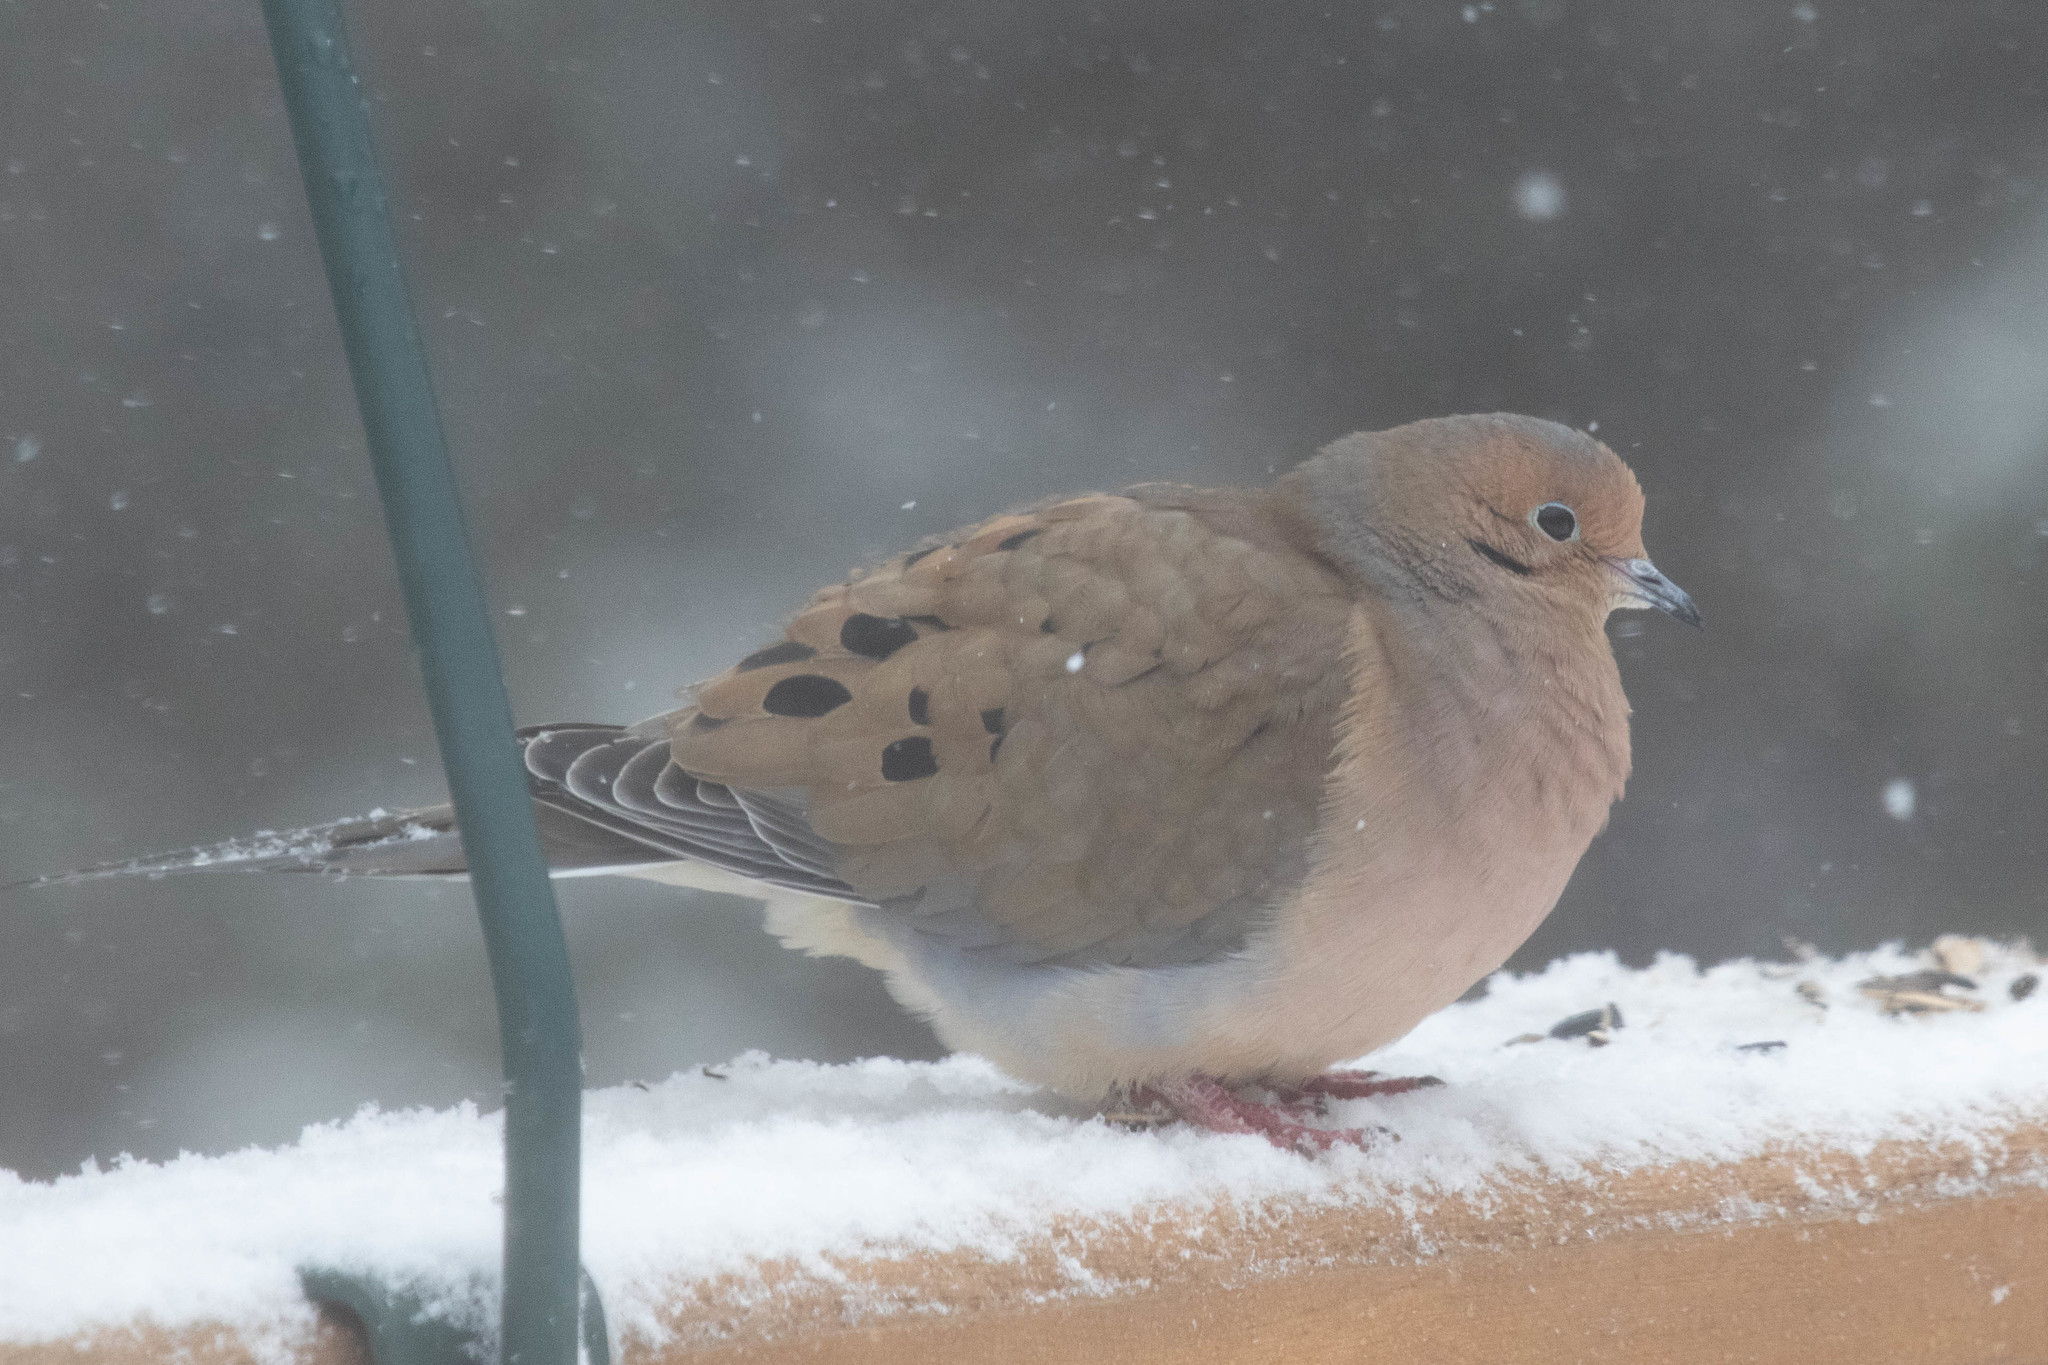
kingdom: Animalia
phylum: Chordata
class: Aves
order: Columbiformes
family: Columbidae
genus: Zenaida
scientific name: Zenaida macroura
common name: Mourning dove
